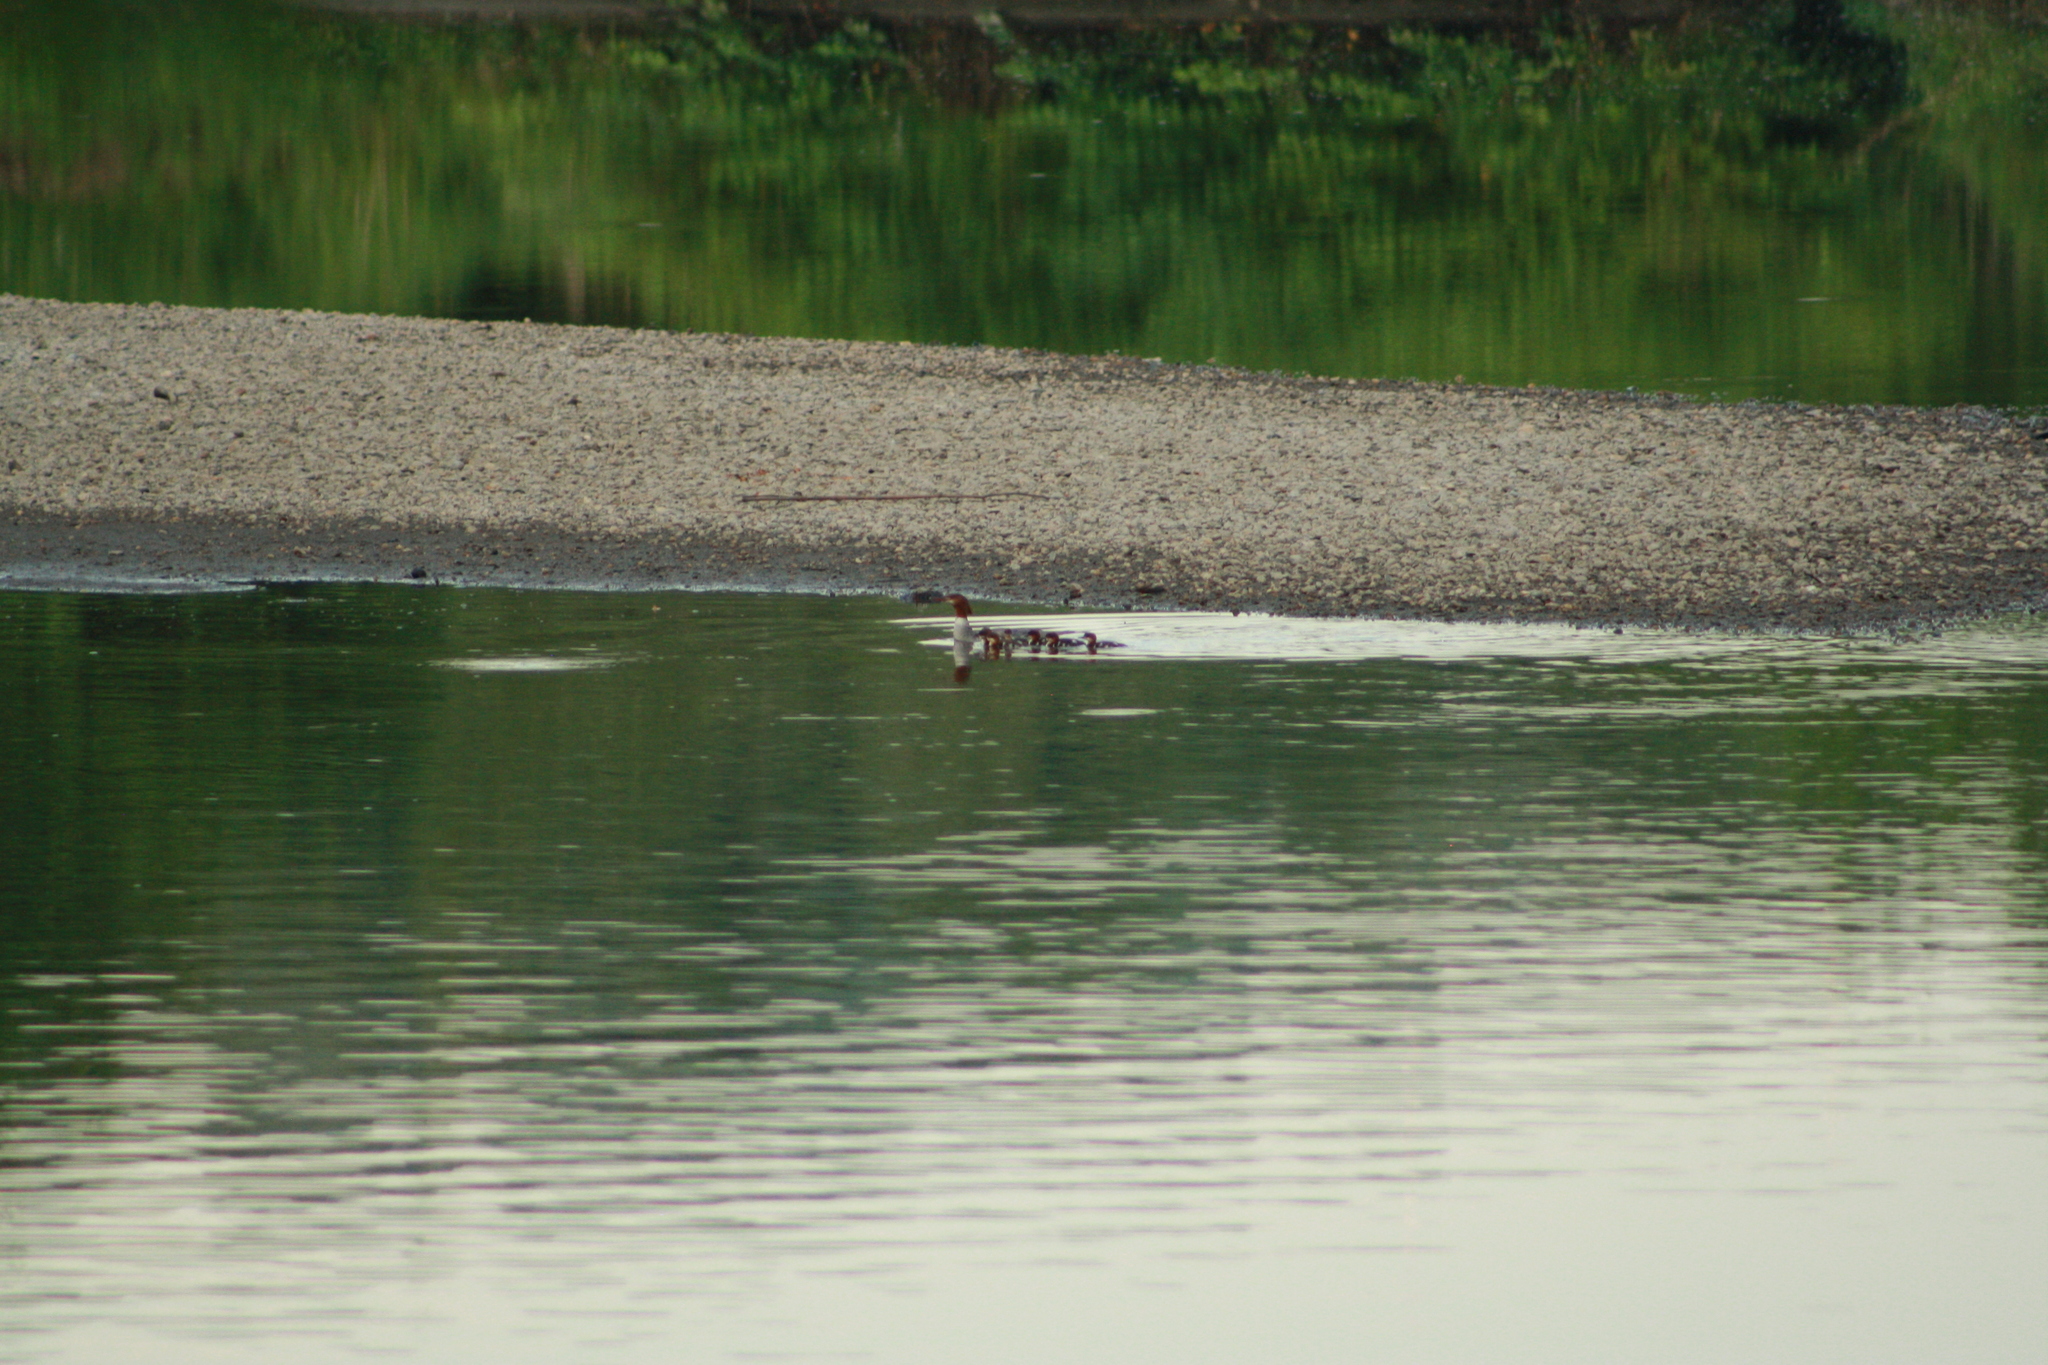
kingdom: Animalia
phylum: Chordata
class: Aves
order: Anseriformes
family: Anatidae
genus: Mergus
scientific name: Mergus merganser
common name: Common merganser
